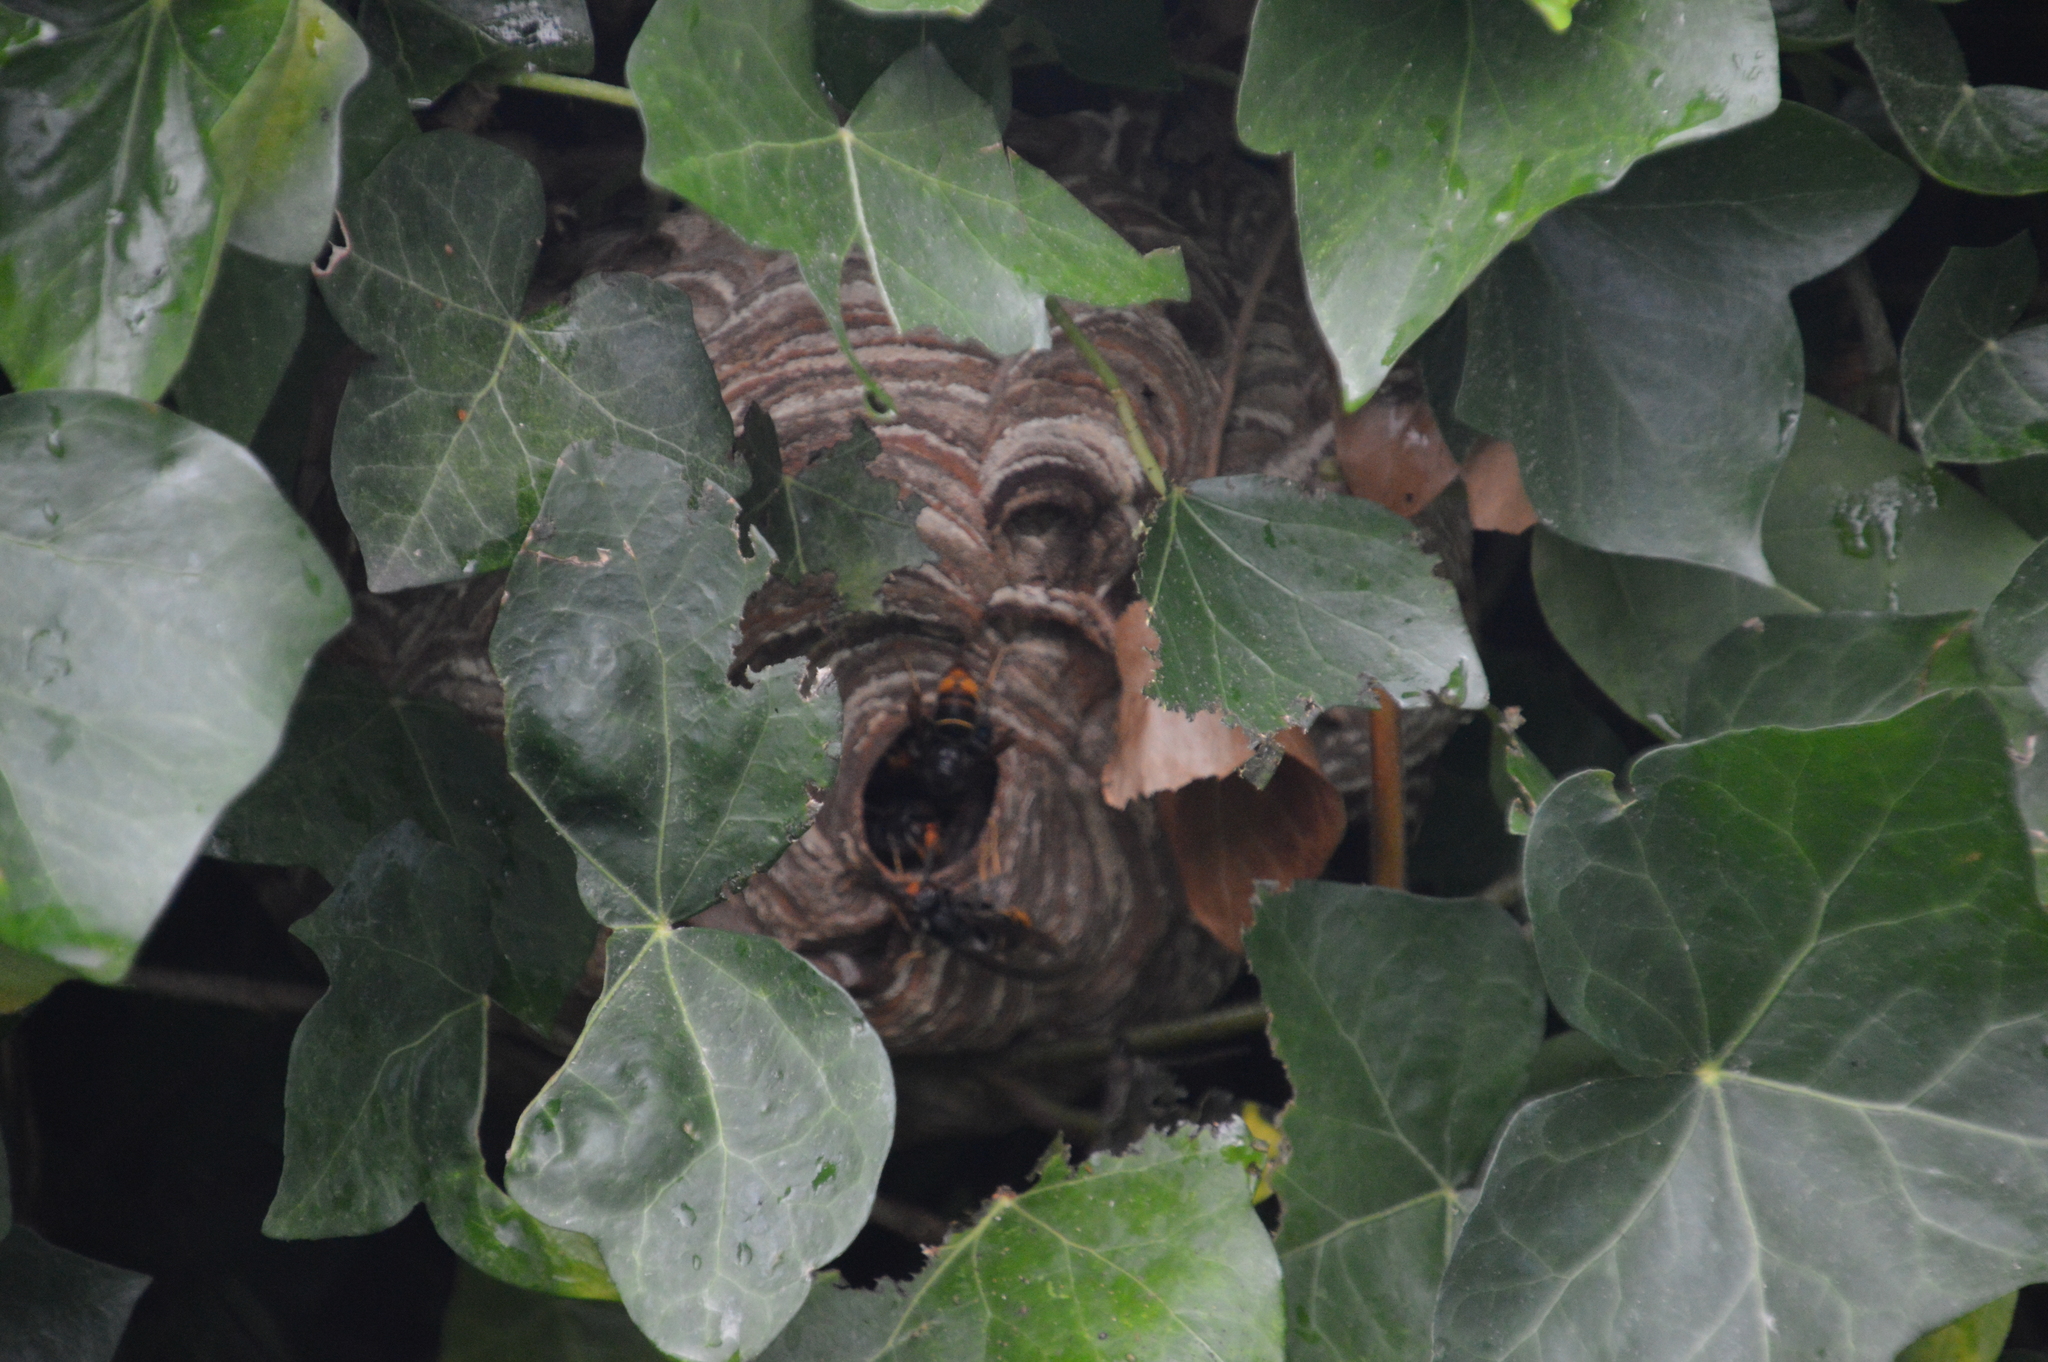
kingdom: Animalia
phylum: Arthropoda
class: Insecta
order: Hymenoptera
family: Vespidae
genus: Vespa
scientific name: Vespa velutina
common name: Asian hornet
